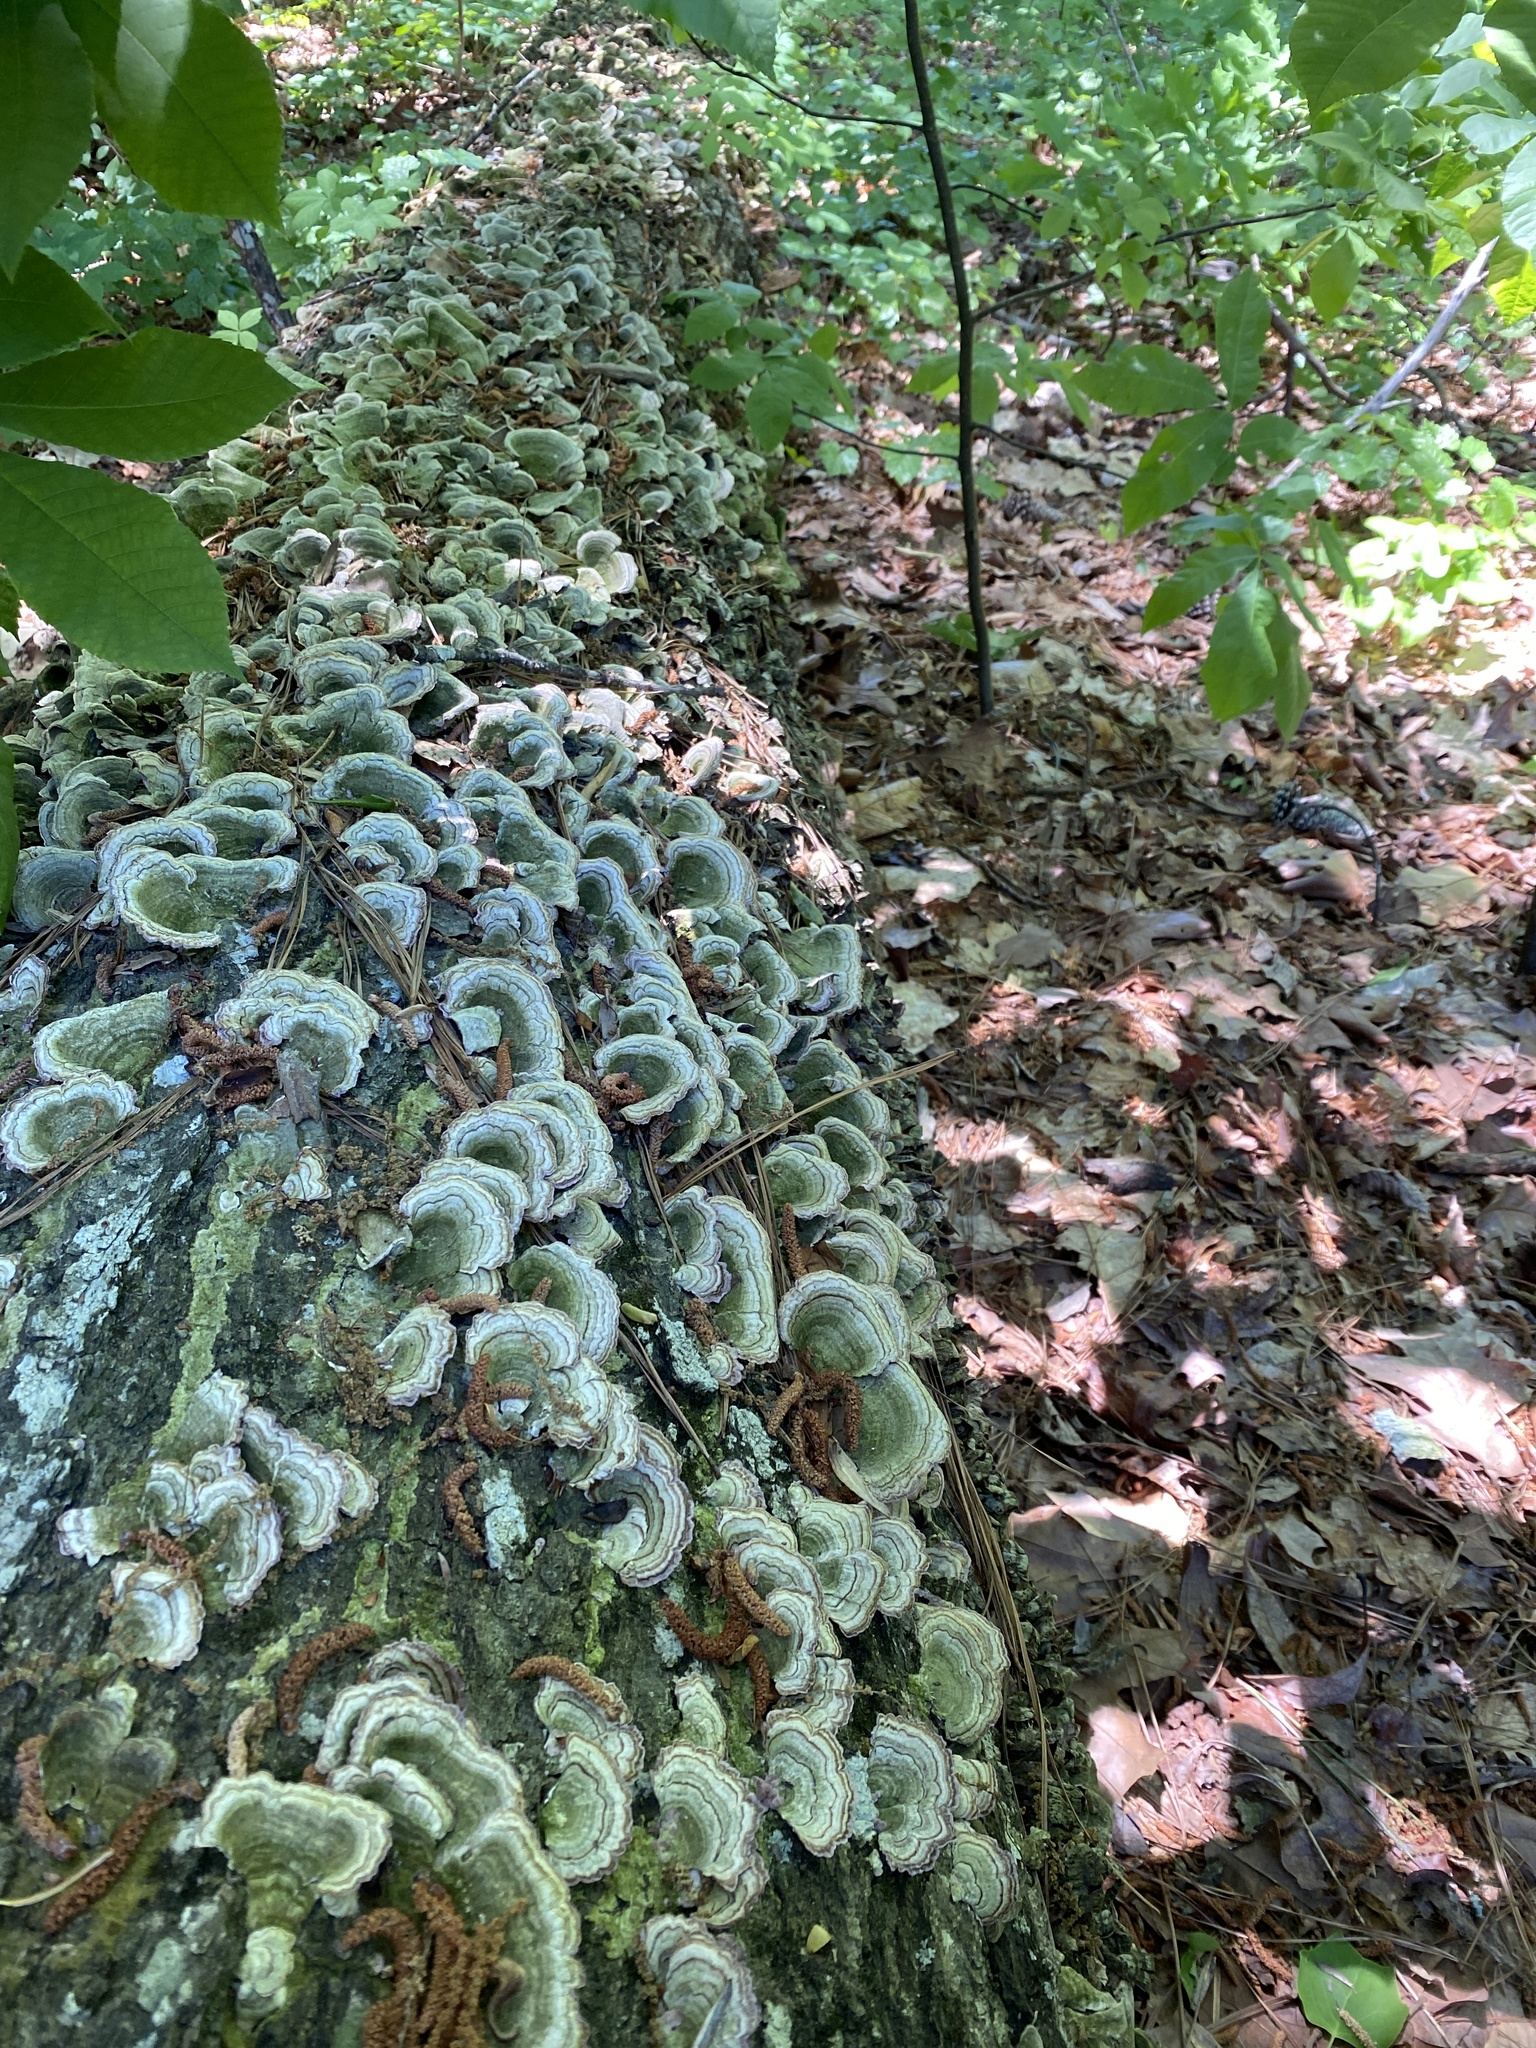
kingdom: Fungi
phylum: Basidiomycota
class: Agaricomycetes
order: Hymenochaetales
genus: Trichaptum
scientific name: Trichaptum biforme
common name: Violet-toothed polypore
